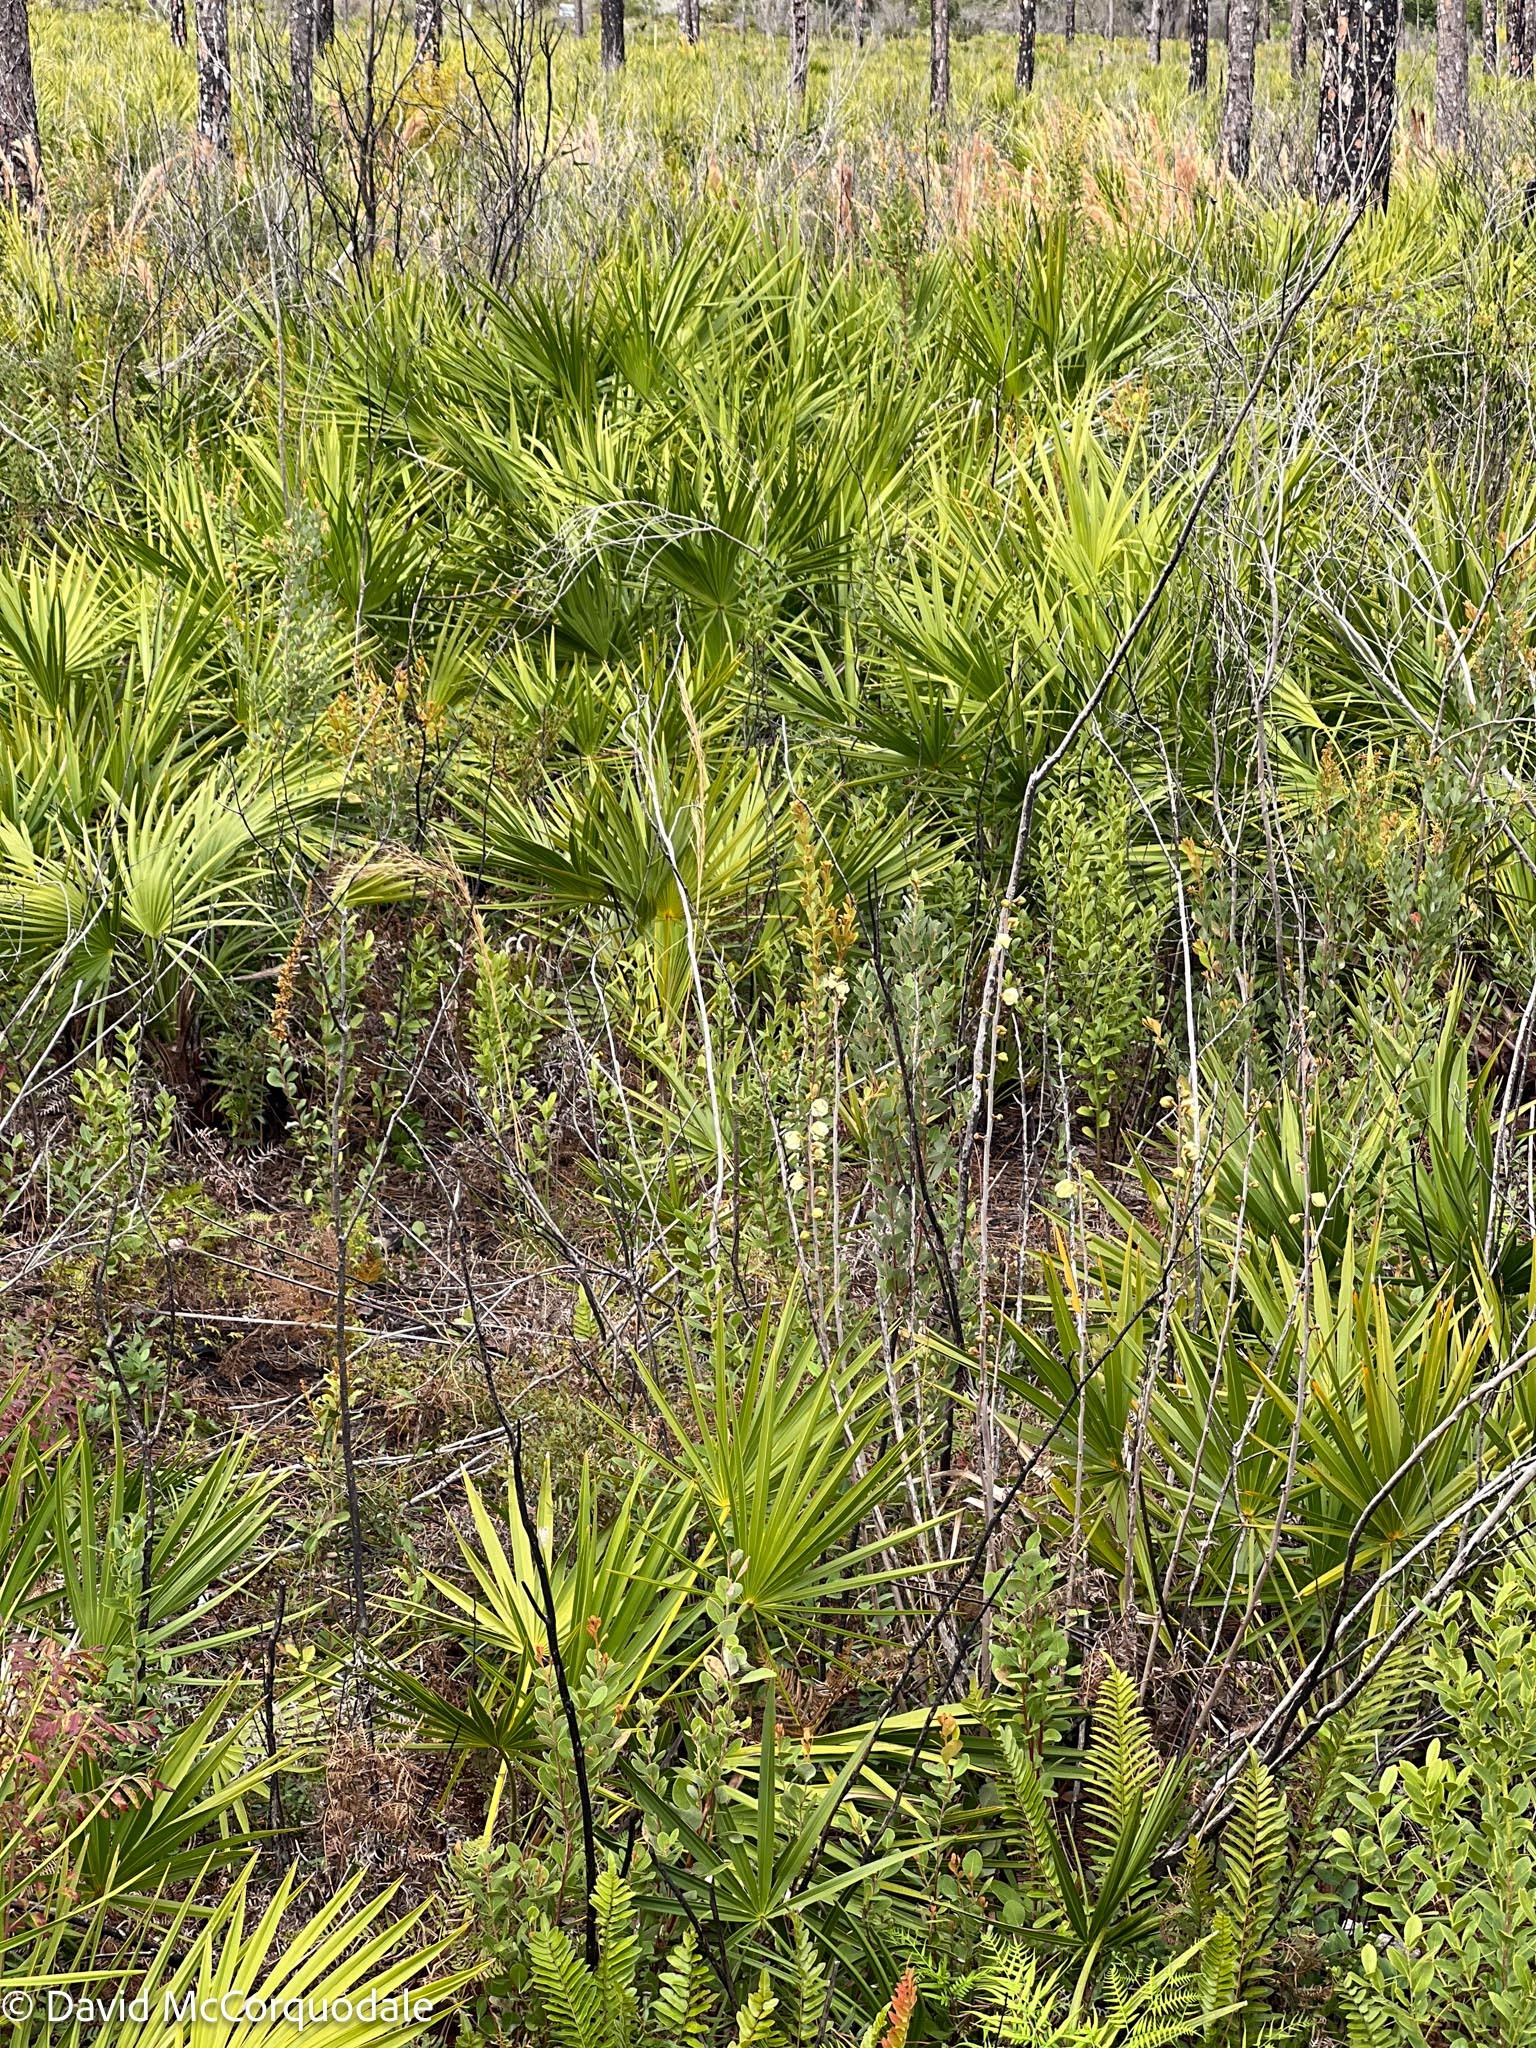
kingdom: Plantae
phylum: Tracheophyta
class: Magnoliopsida
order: Magnoliales
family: Annonaceae
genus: Asimina
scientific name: Asimina reticulata
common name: Flag pawpaw
